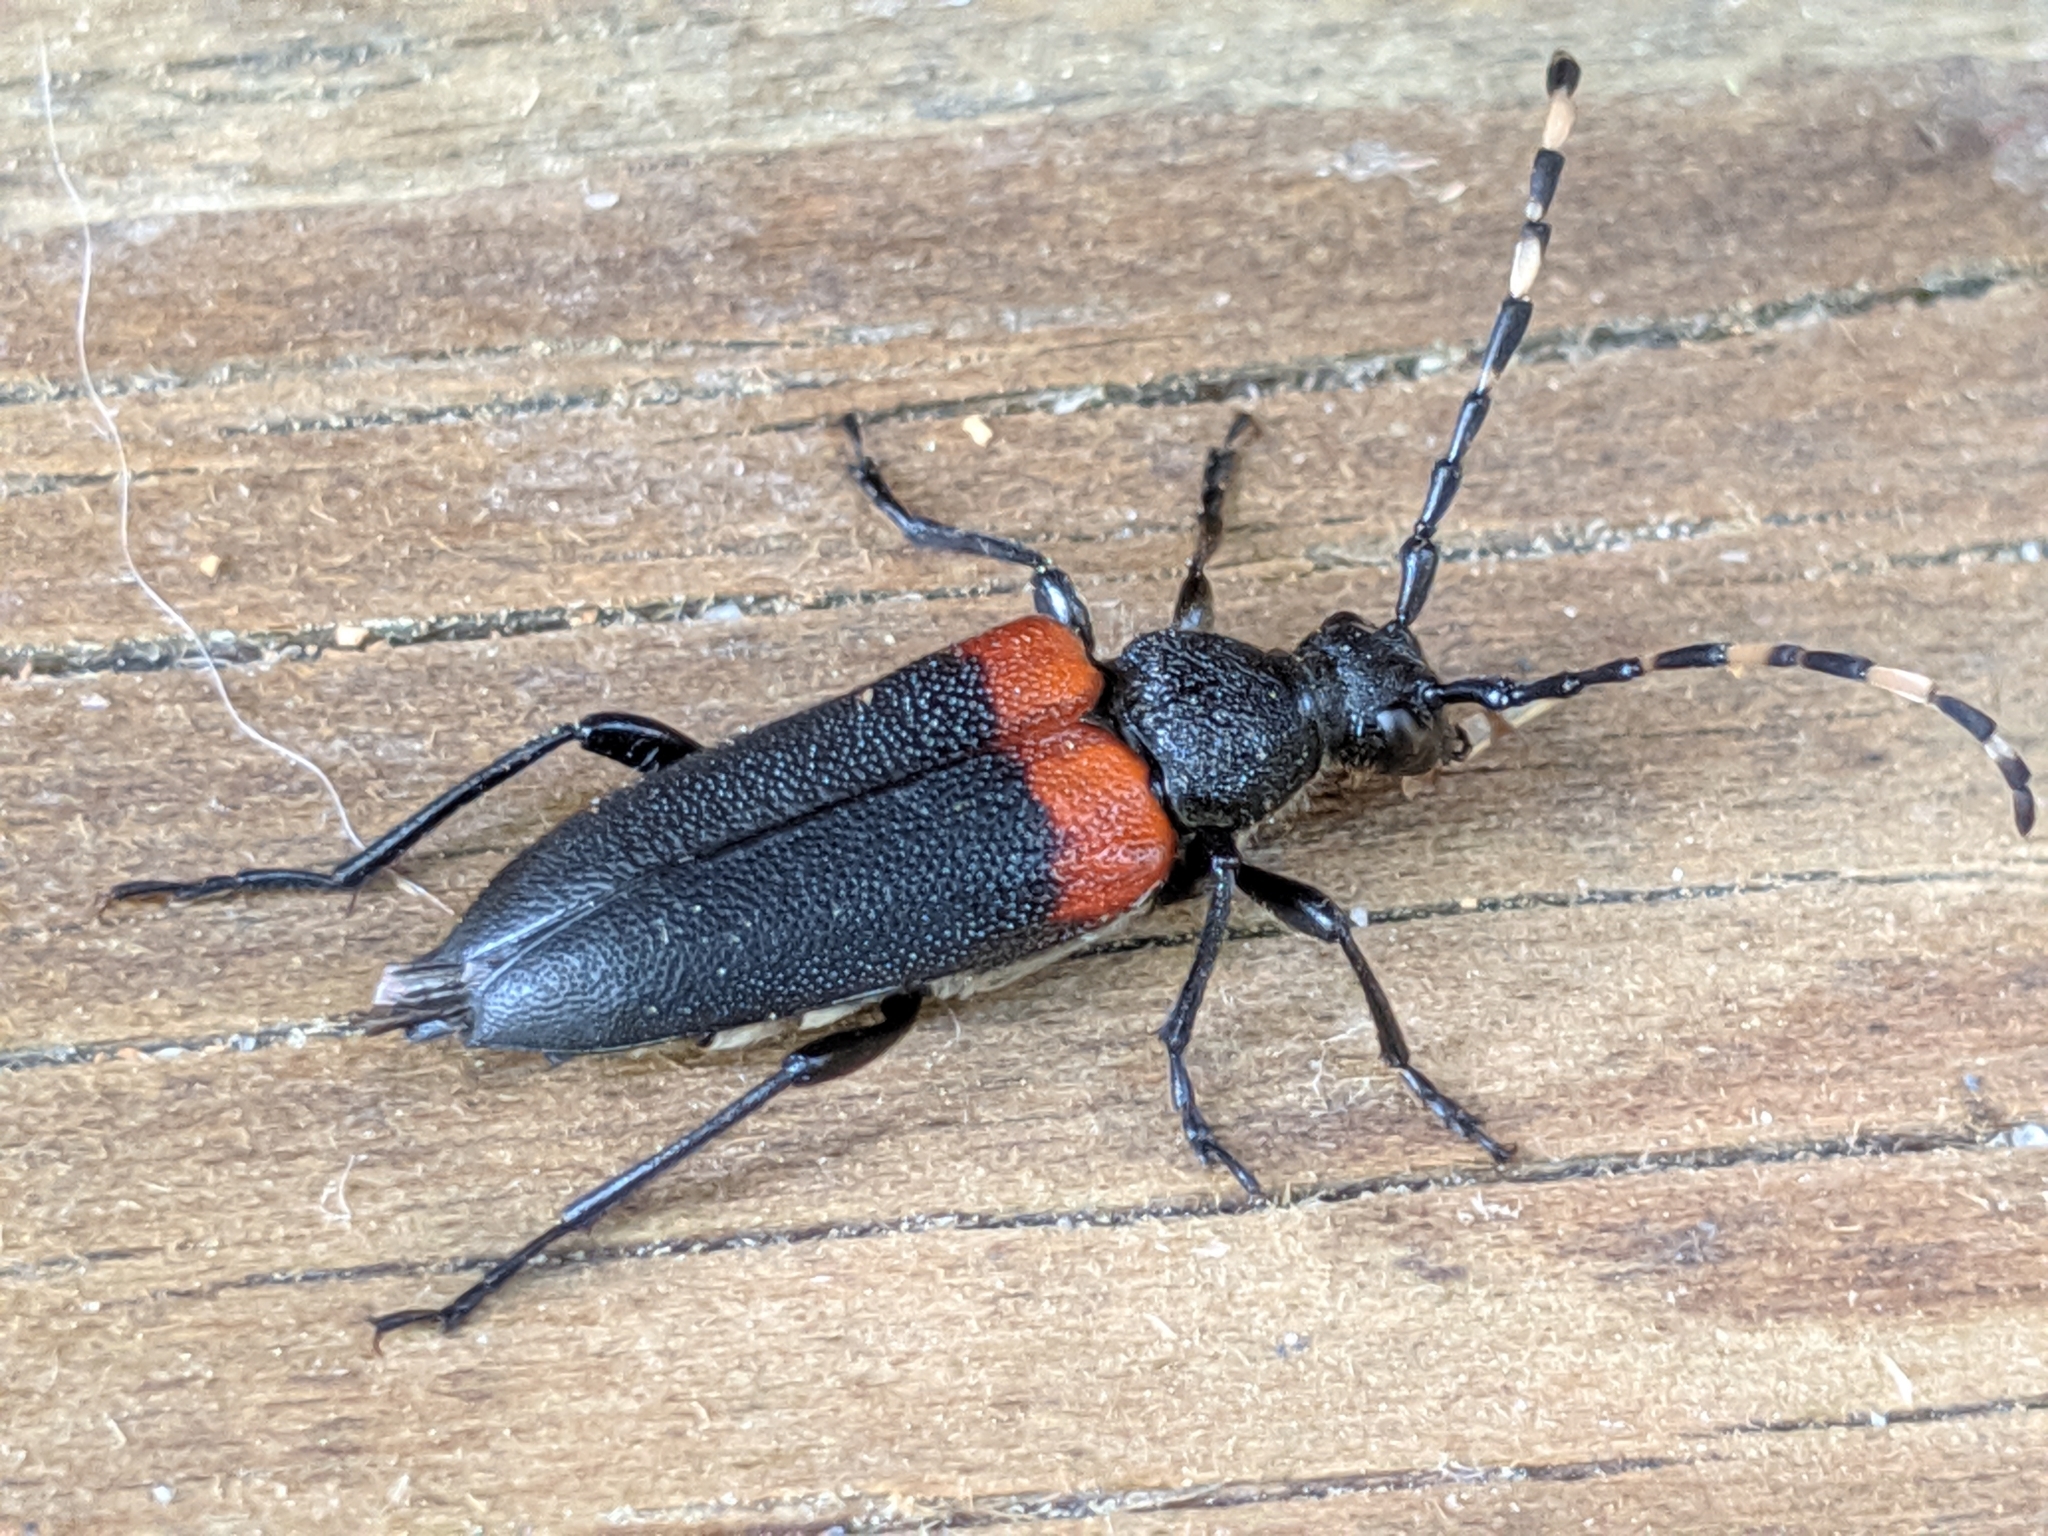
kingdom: Animalia
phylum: Arthropoda
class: Insecta
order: Coleoptera
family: Cerambycidae
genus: Stictoleptura
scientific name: Stictoleptura canadensis
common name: Red-shouldered pine borer
